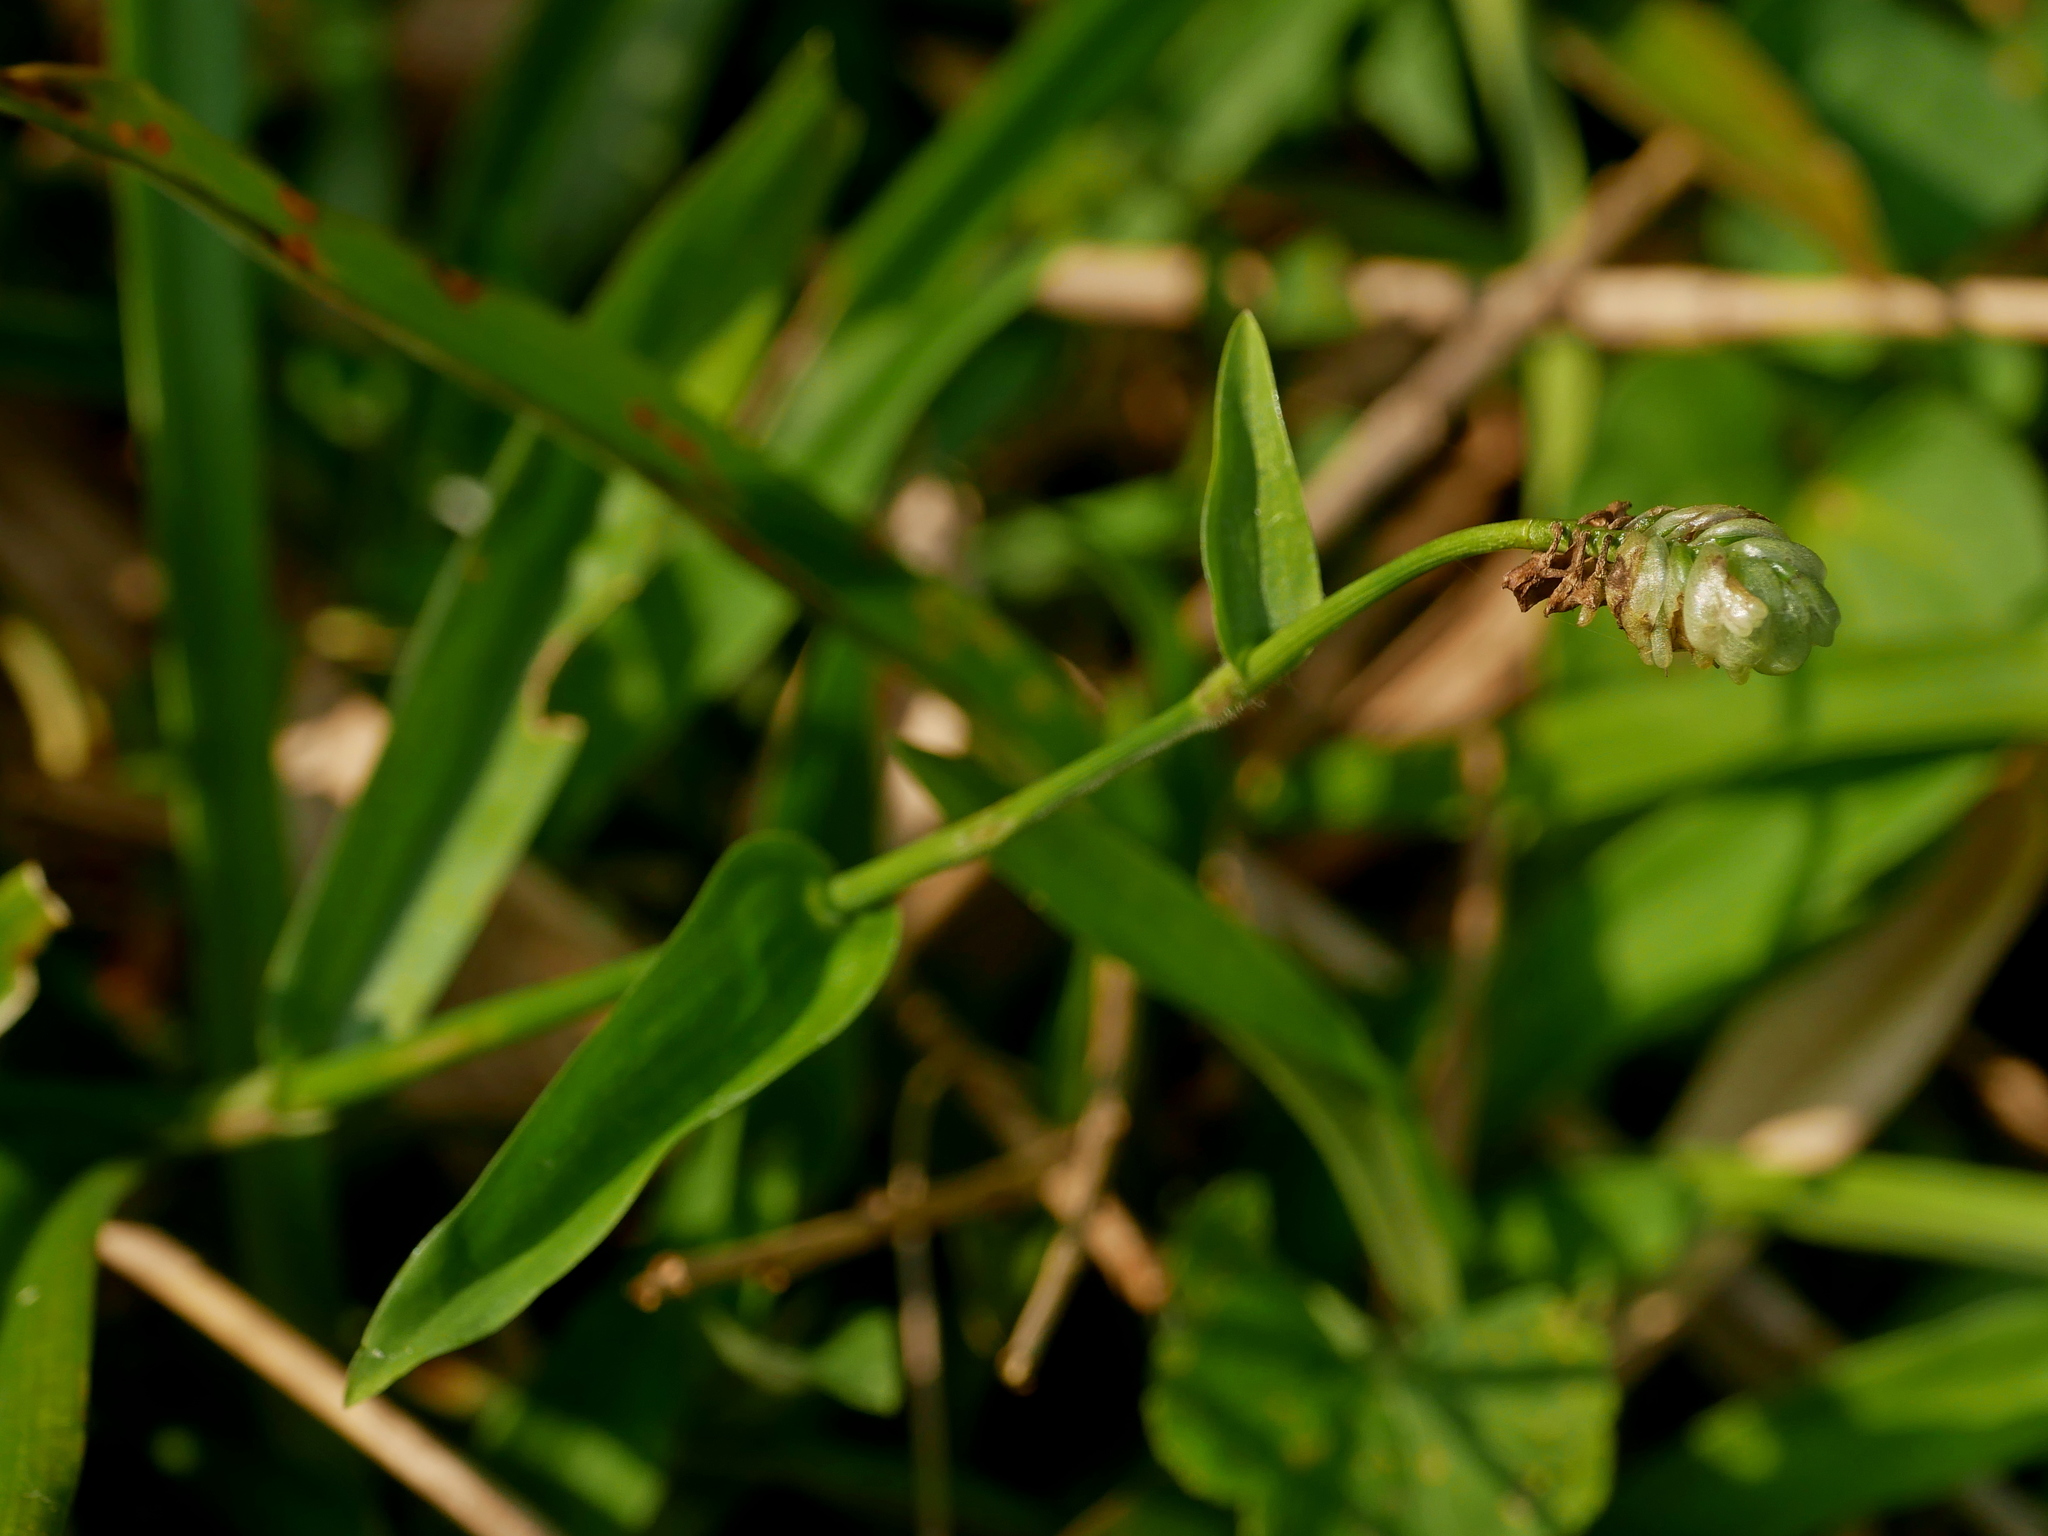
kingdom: Plantae
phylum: Tracheophyta
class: Liliopsida
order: Commelinales
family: Commelinaceae
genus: Murdannia
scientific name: Murdannia bracteata
